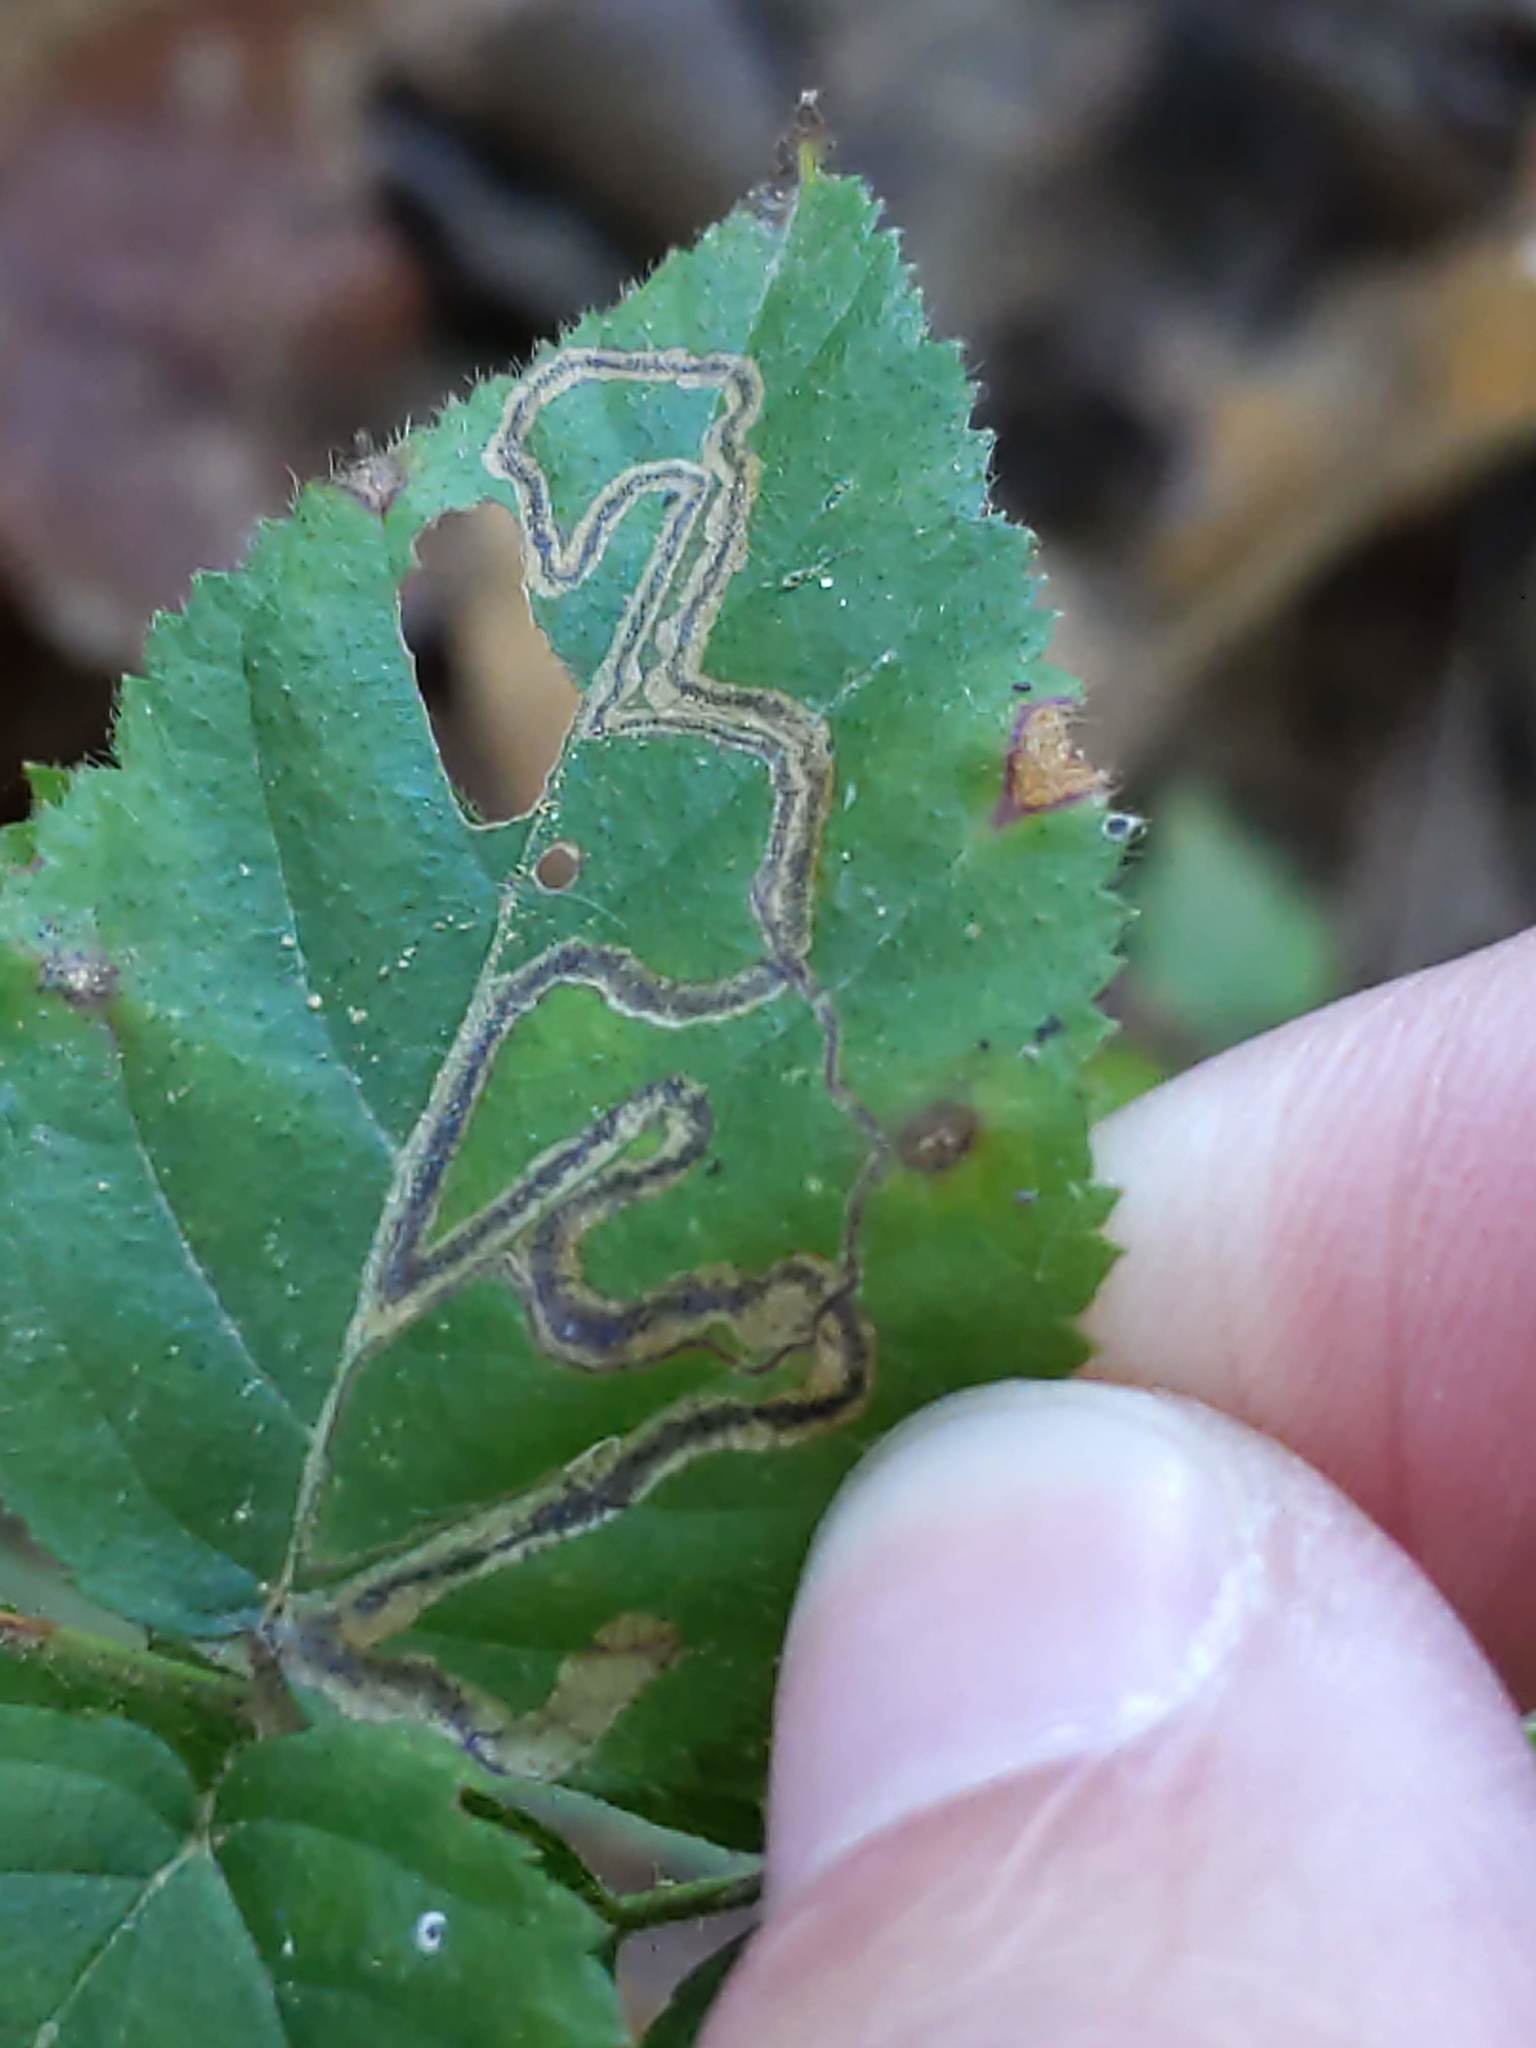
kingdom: Animalia
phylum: Arthropoda
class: Insecta
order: Lepidoptera
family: Nepticulidae
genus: Stigmella
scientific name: Stigmella villosella
